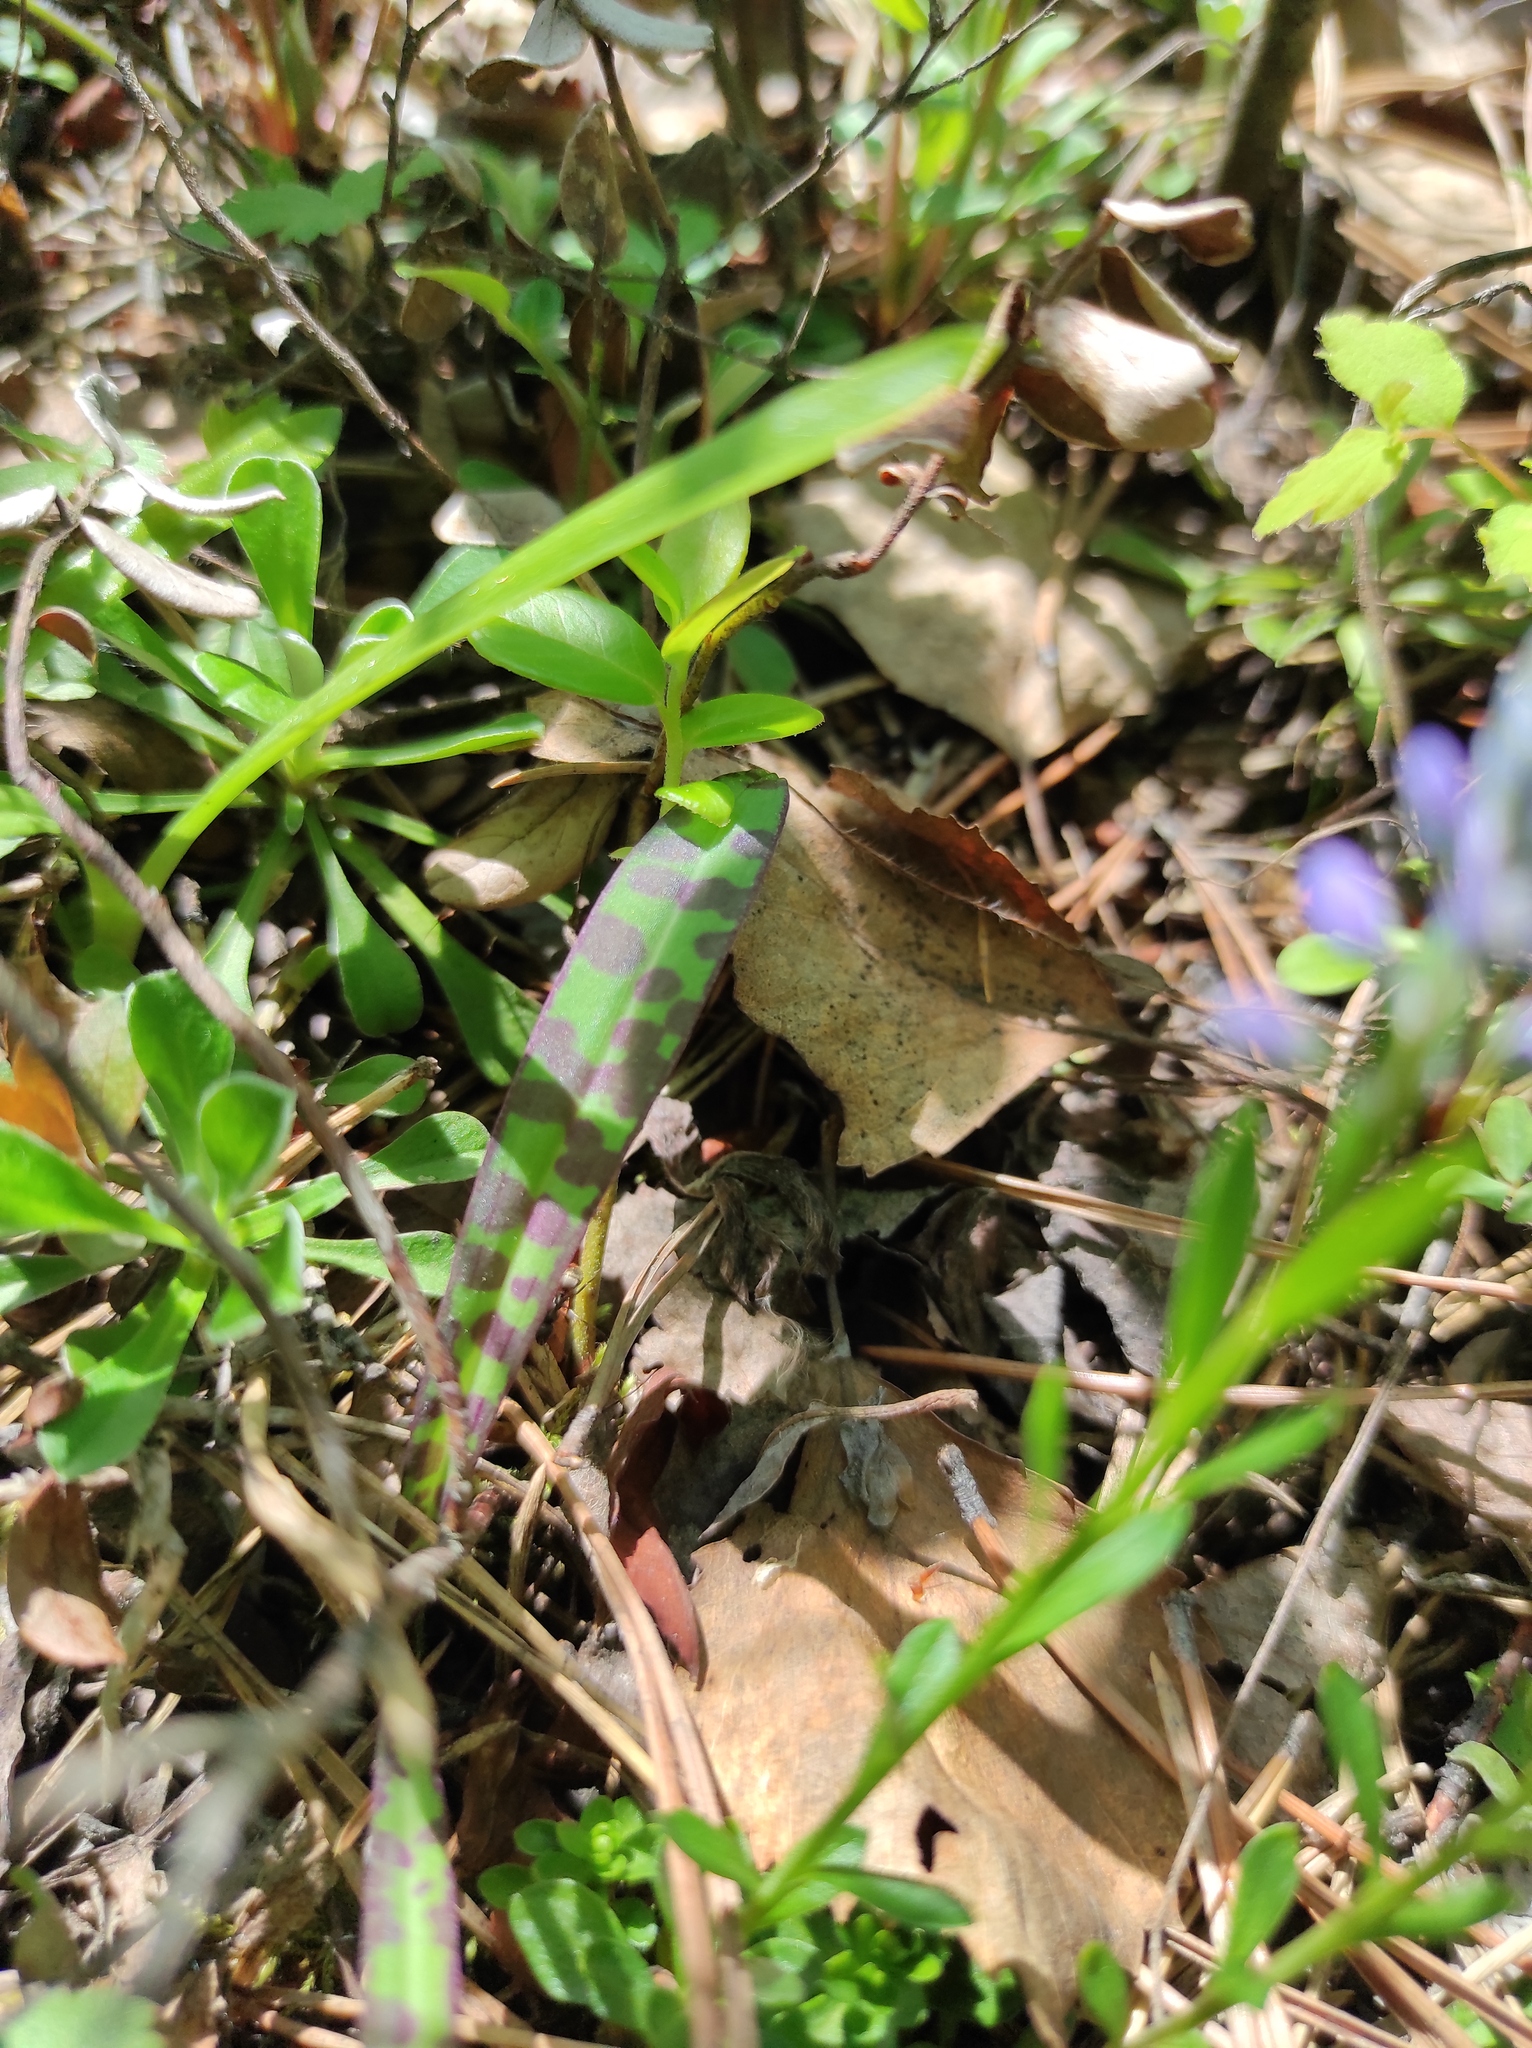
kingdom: Plantae
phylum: Tracheophyta
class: Liliopsida
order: Asparagales
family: Orchidaceae
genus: Dactylorhiza
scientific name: Dactylorhiza maculata
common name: Heath spotted-orchid
